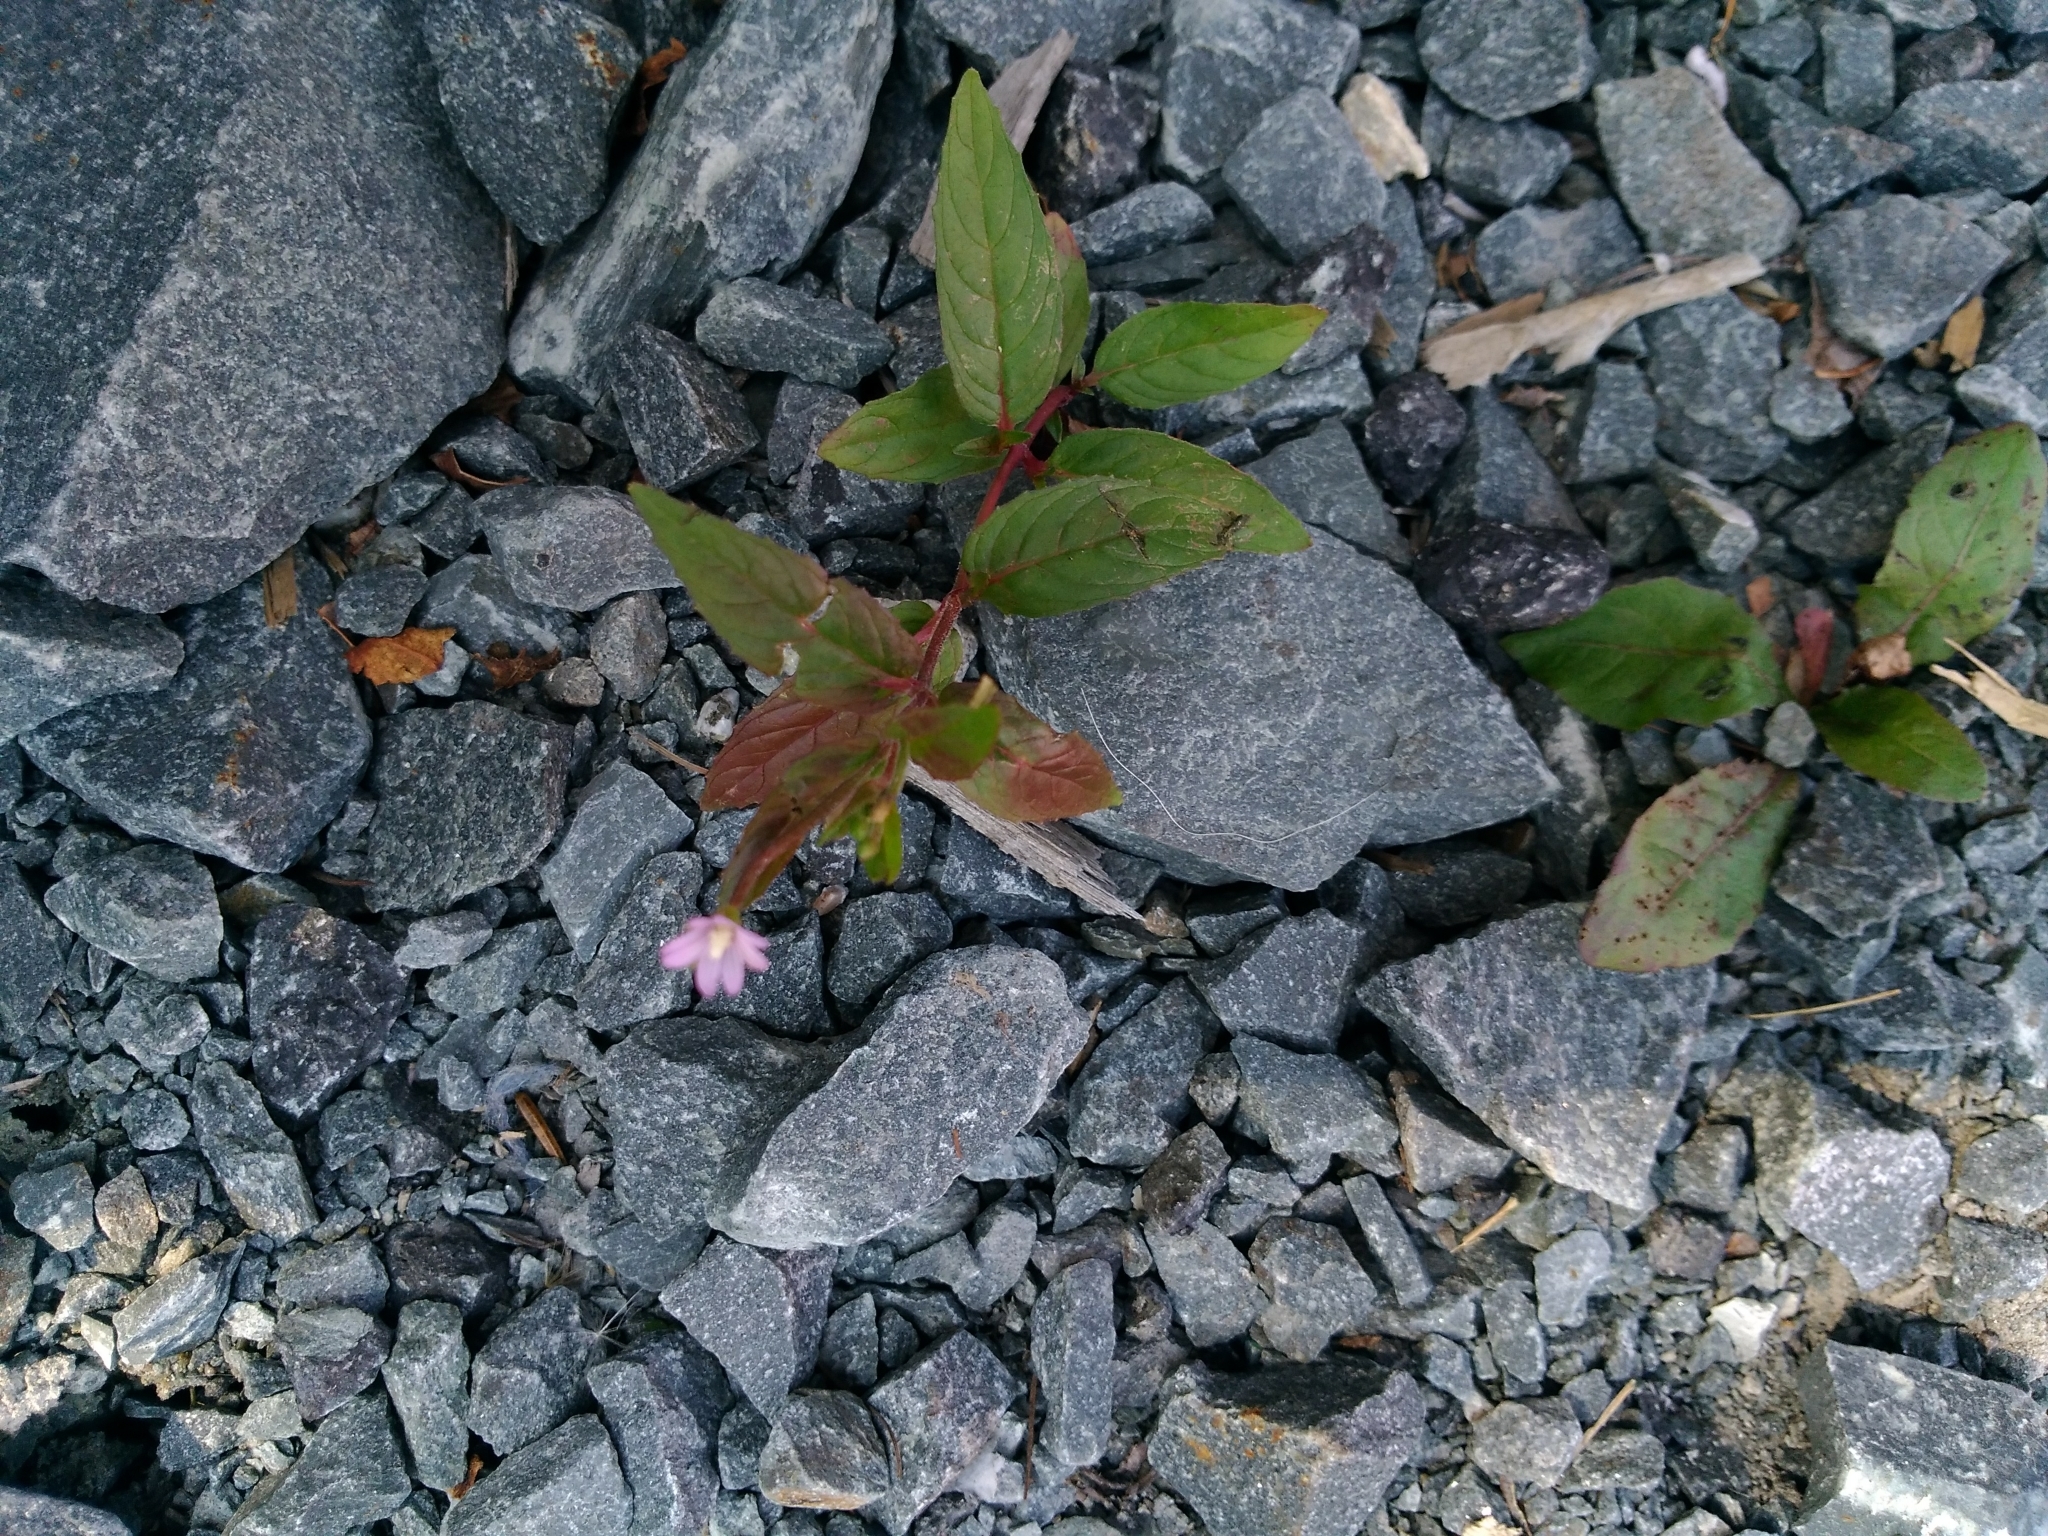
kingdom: Plantae
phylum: Tracheophyta
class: Magnoliopsida
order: Myrtales
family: Onagraceae
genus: Epilobium
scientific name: Epilobium ciliatum
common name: American willowherb
